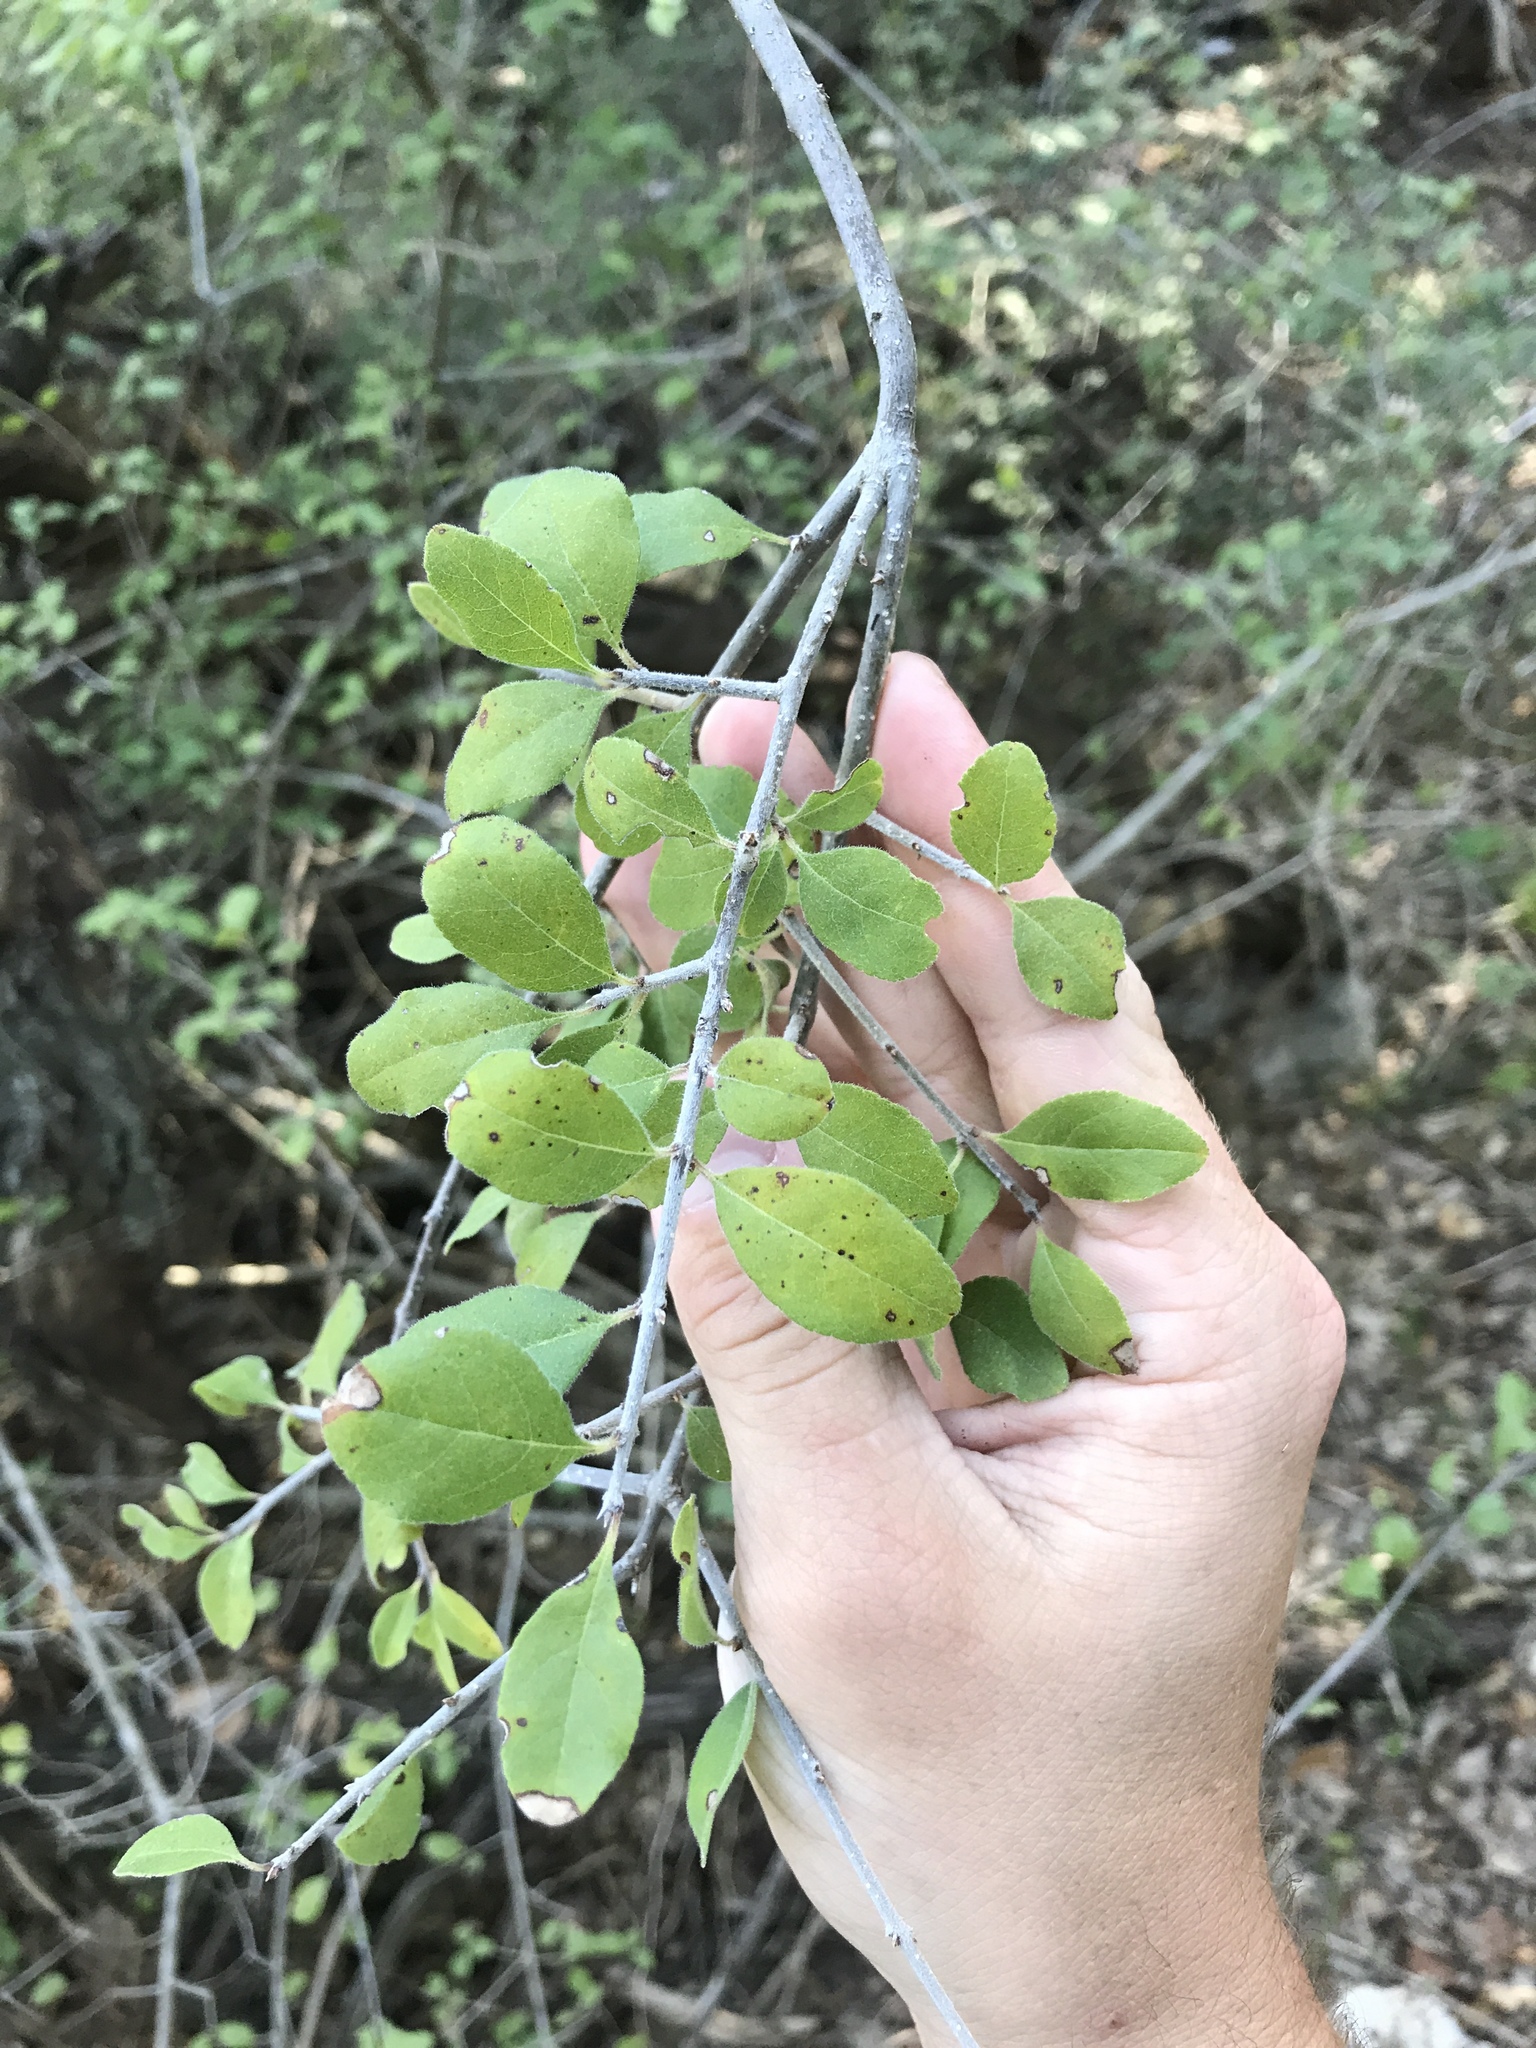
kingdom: Plantae
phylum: Tracheophyta
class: Magnoliopsida
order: Lamiales
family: Oleaceae
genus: Forestiera
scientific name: Forestiera pubescens
